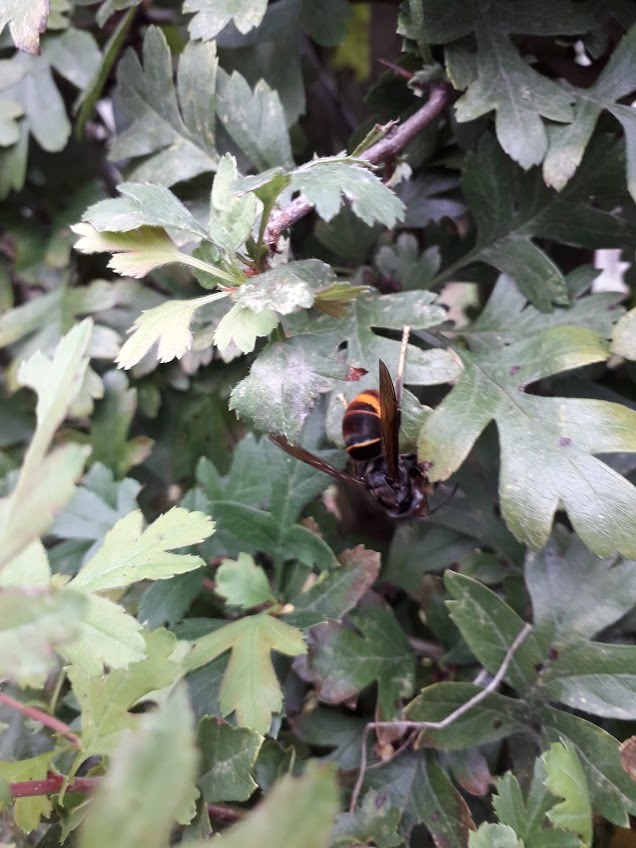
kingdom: Animalia
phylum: Arthropoda
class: Insecta
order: Hymenoptera
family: Vespidae
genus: Vespa
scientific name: Vespa velutina
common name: Asian hornet
